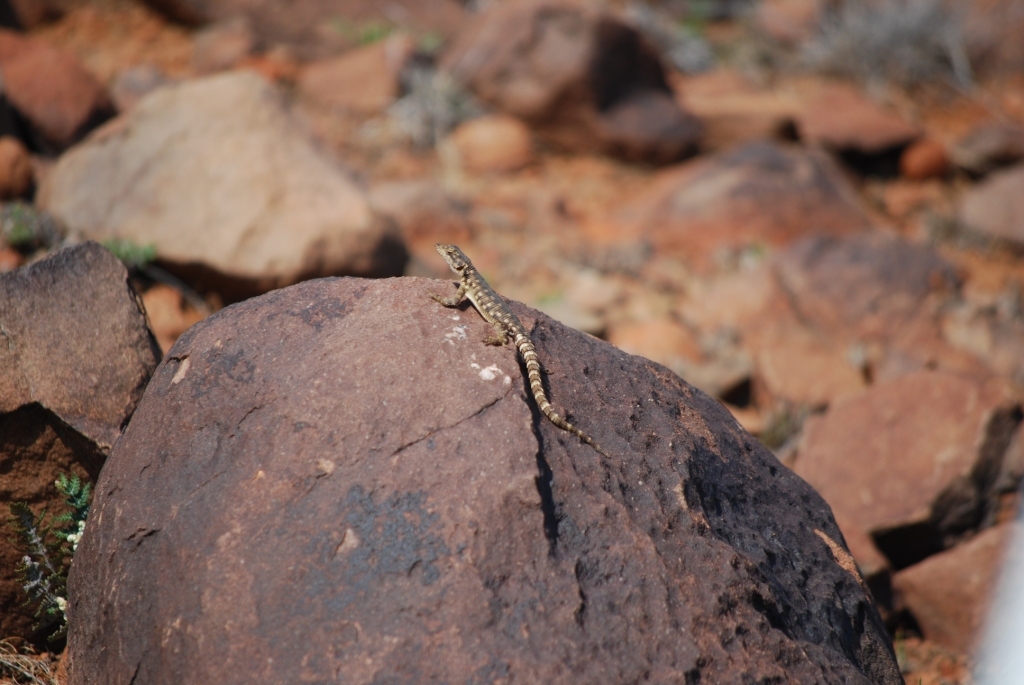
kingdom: Animalia
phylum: Chordata
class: Squamata
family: Cordylidae
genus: Karusasaurus
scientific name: Karusasaurus polyzonus
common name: Karoo girdled lizard
